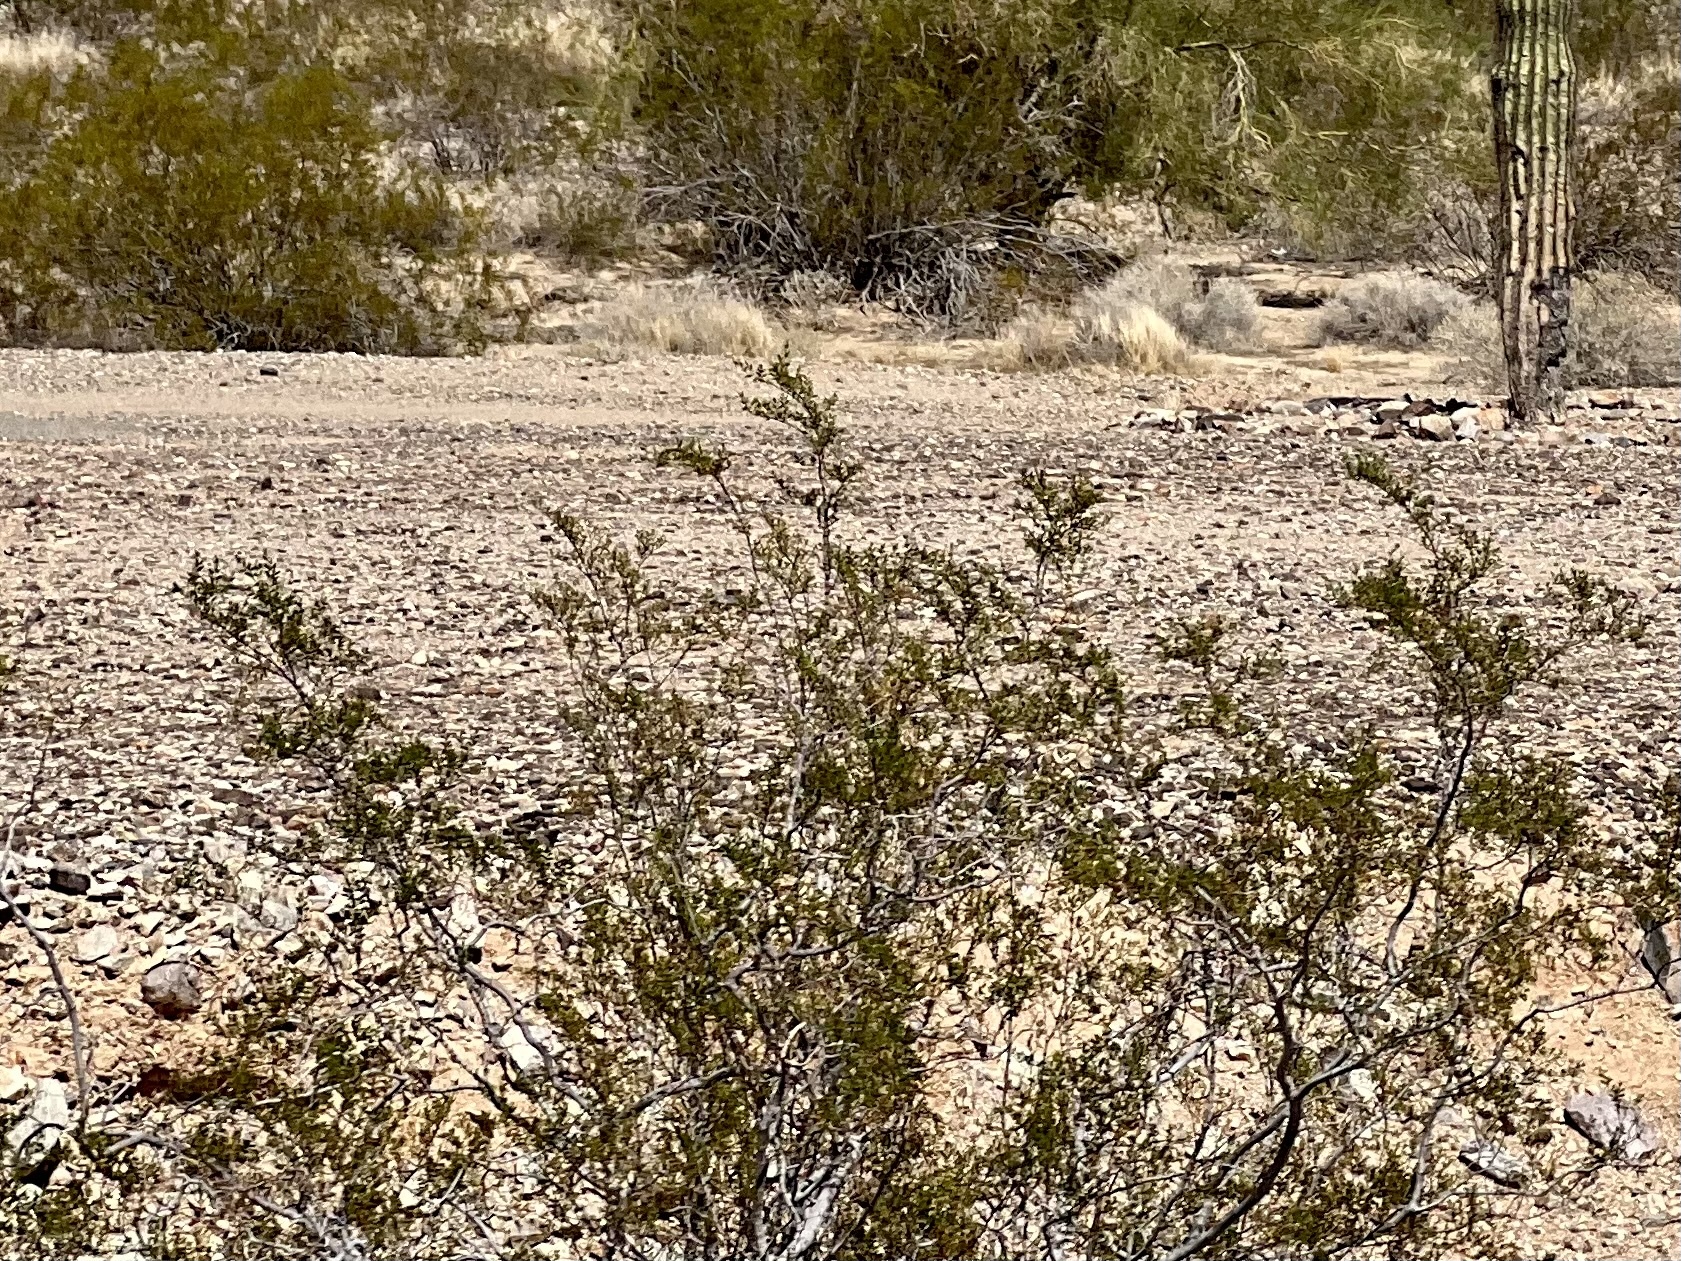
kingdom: Plantae
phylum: Tracheophyta
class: Magnoliopsida
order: Zygophyllales
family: Zygophyllaceae
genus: Larrea
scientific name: Larrea tridentata
